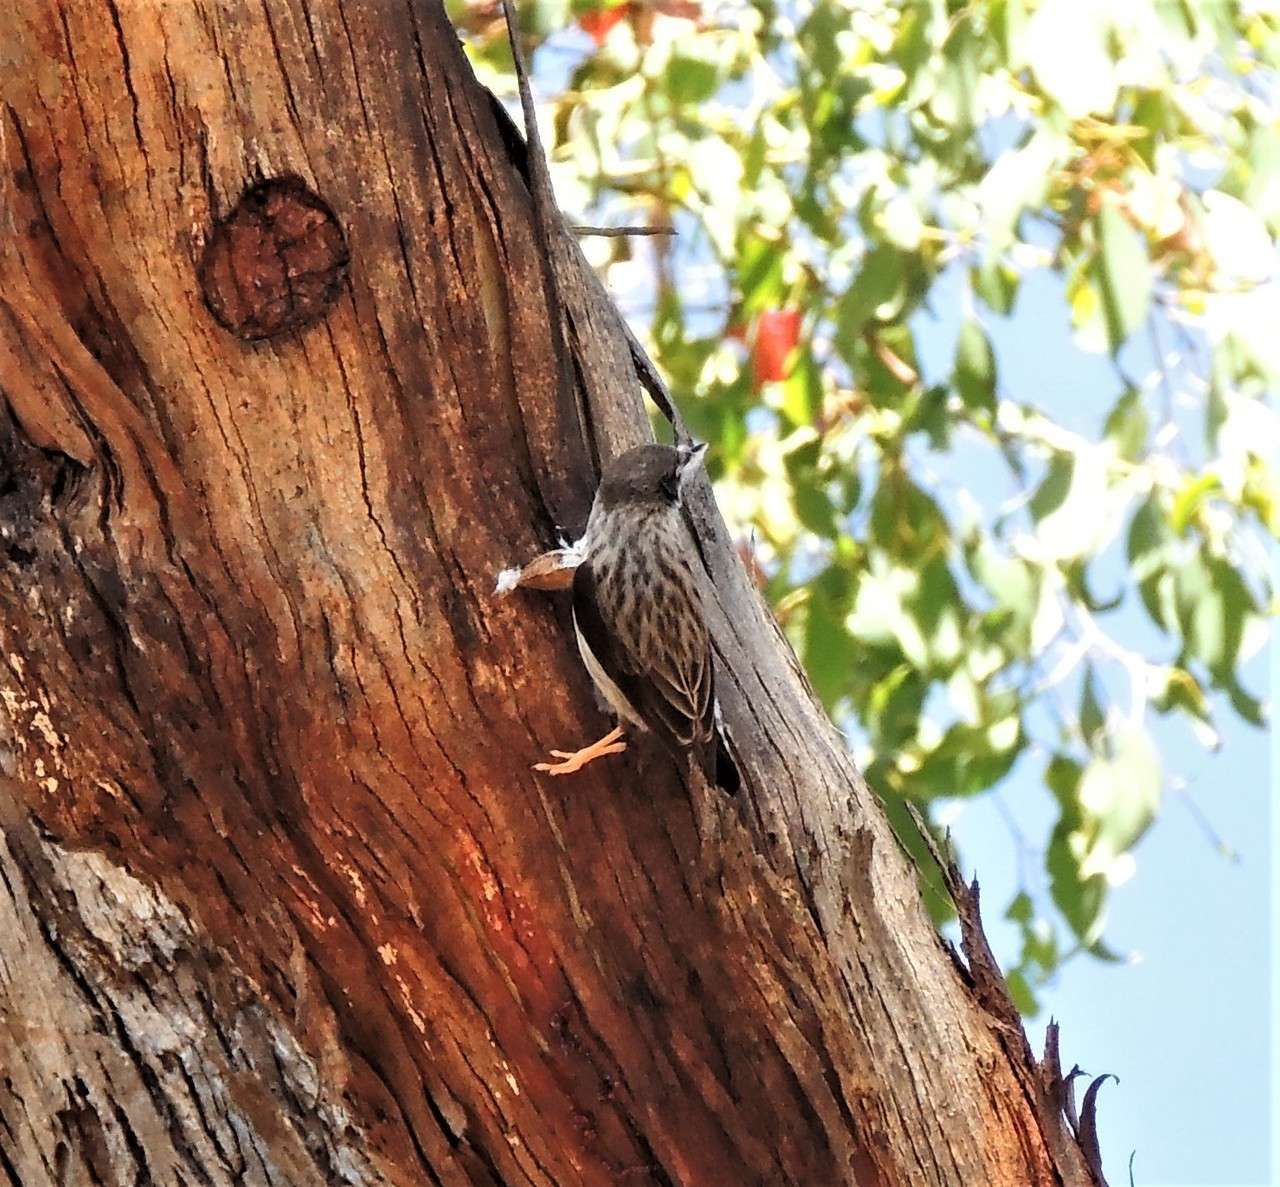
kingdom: Animalia
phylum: Chordata
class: Aves
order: Passeriformes
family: Neosittidae
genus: Daphoenositta
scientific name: Daphoenositta chrysoptera
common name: Varied sittella
